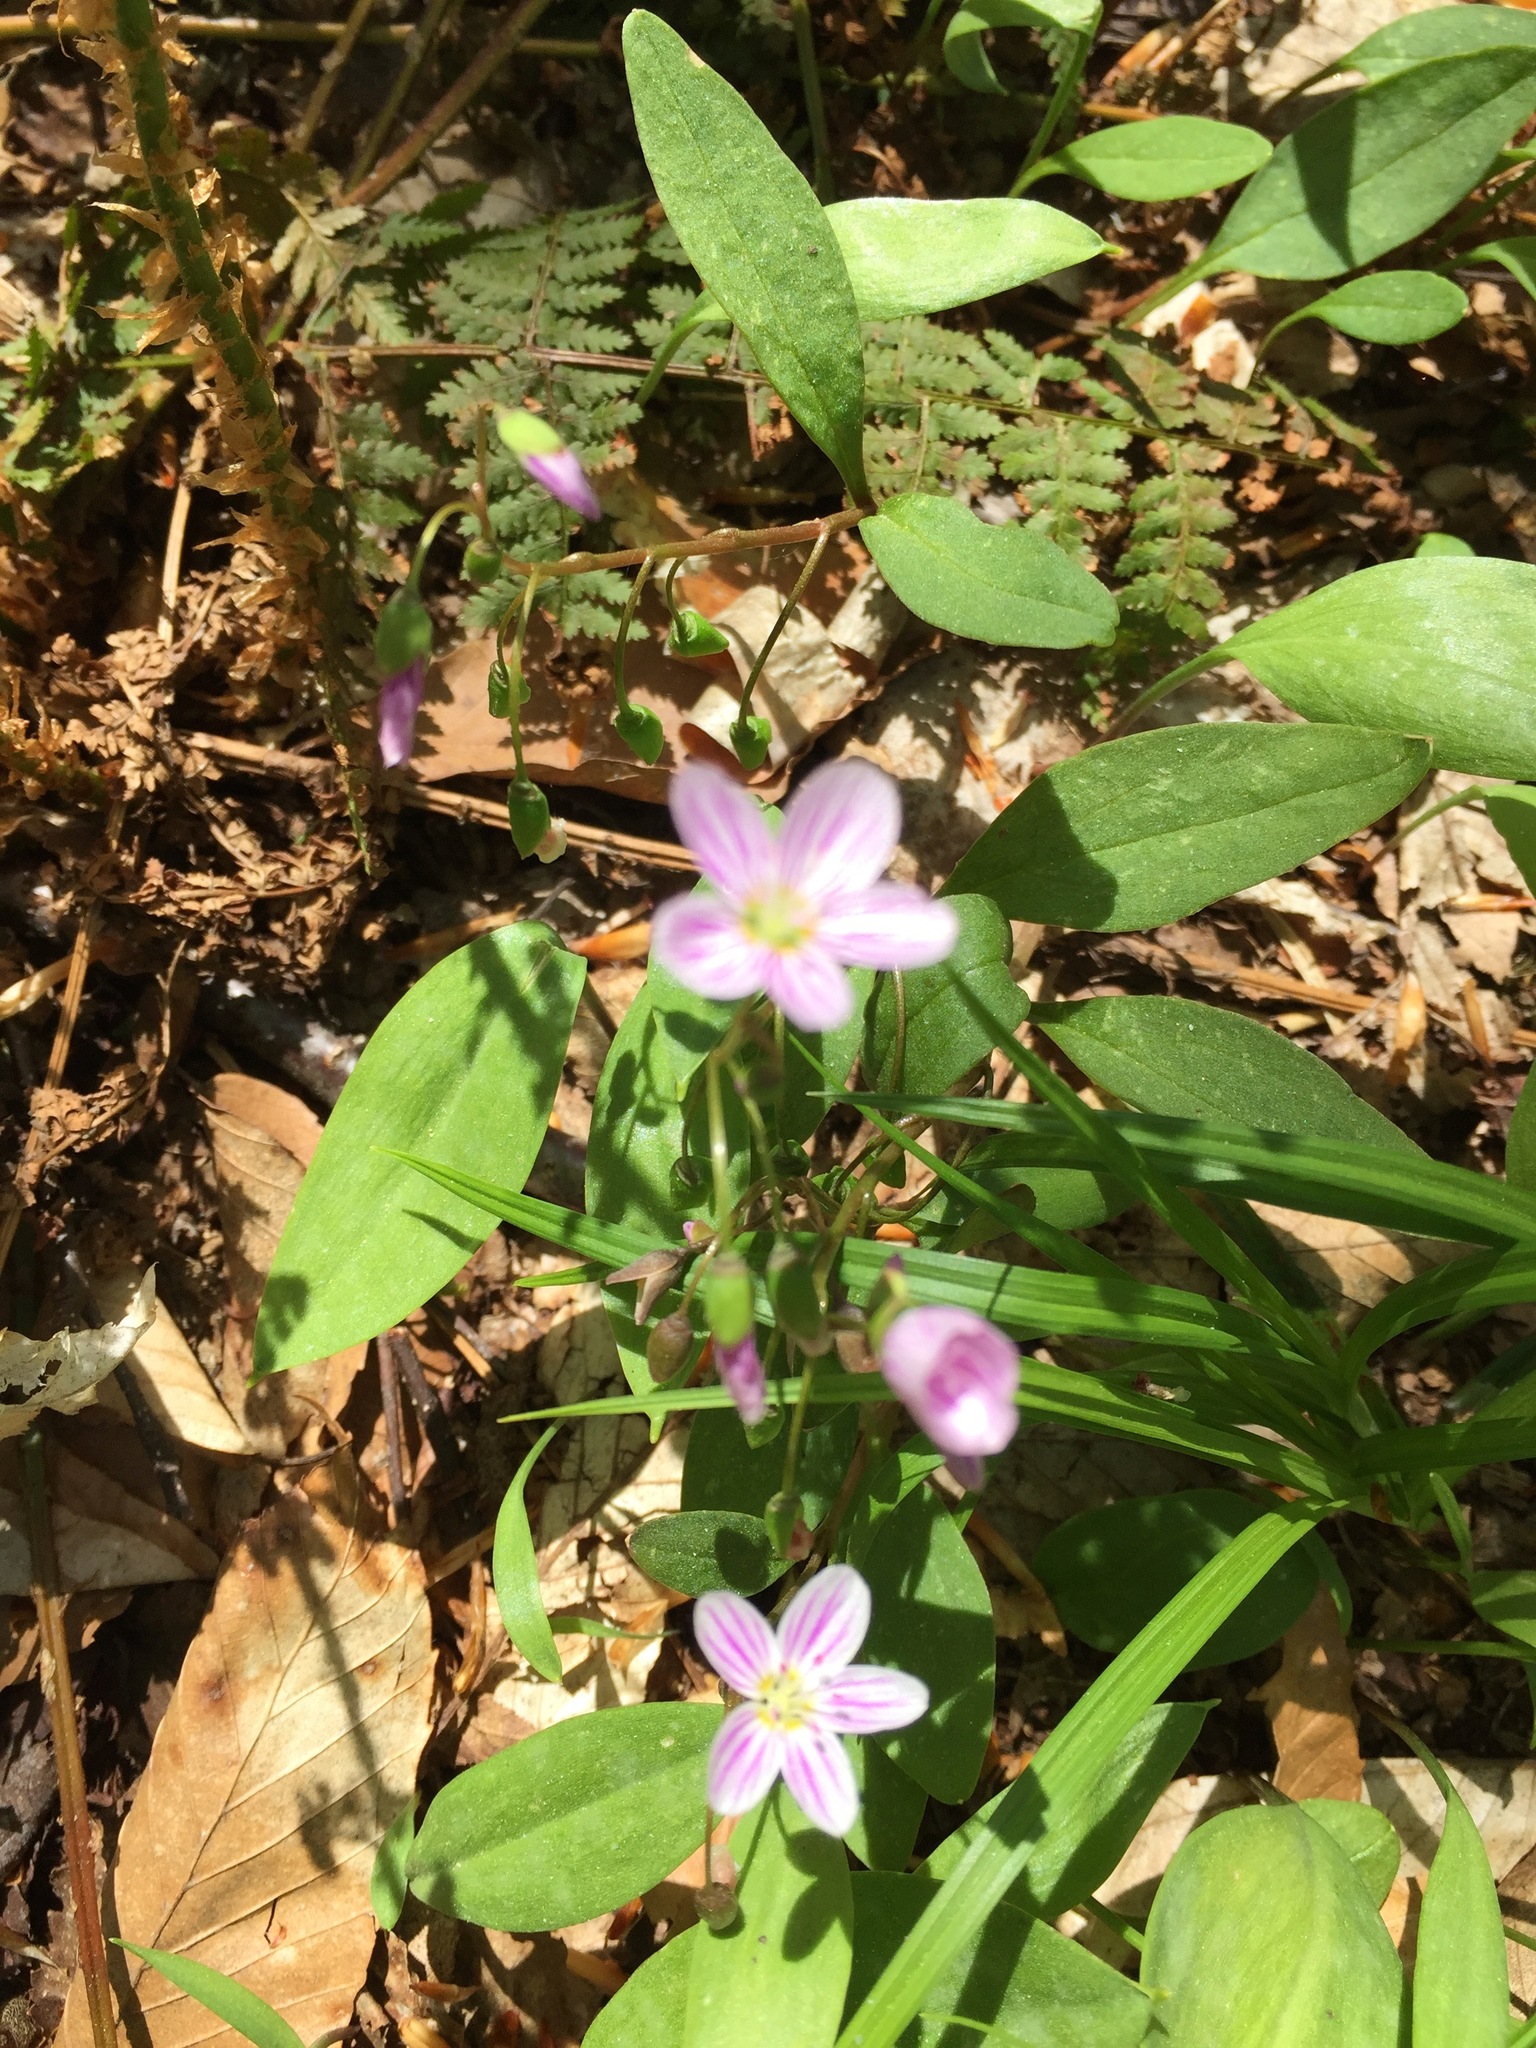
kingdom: Plantae
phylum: Tracheophyta
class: Magnoliopsida
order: Caryophyllales
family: Montiaceae
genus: Claytonia
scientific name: Claytonia caroliniana
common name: Carolina spring beauty
